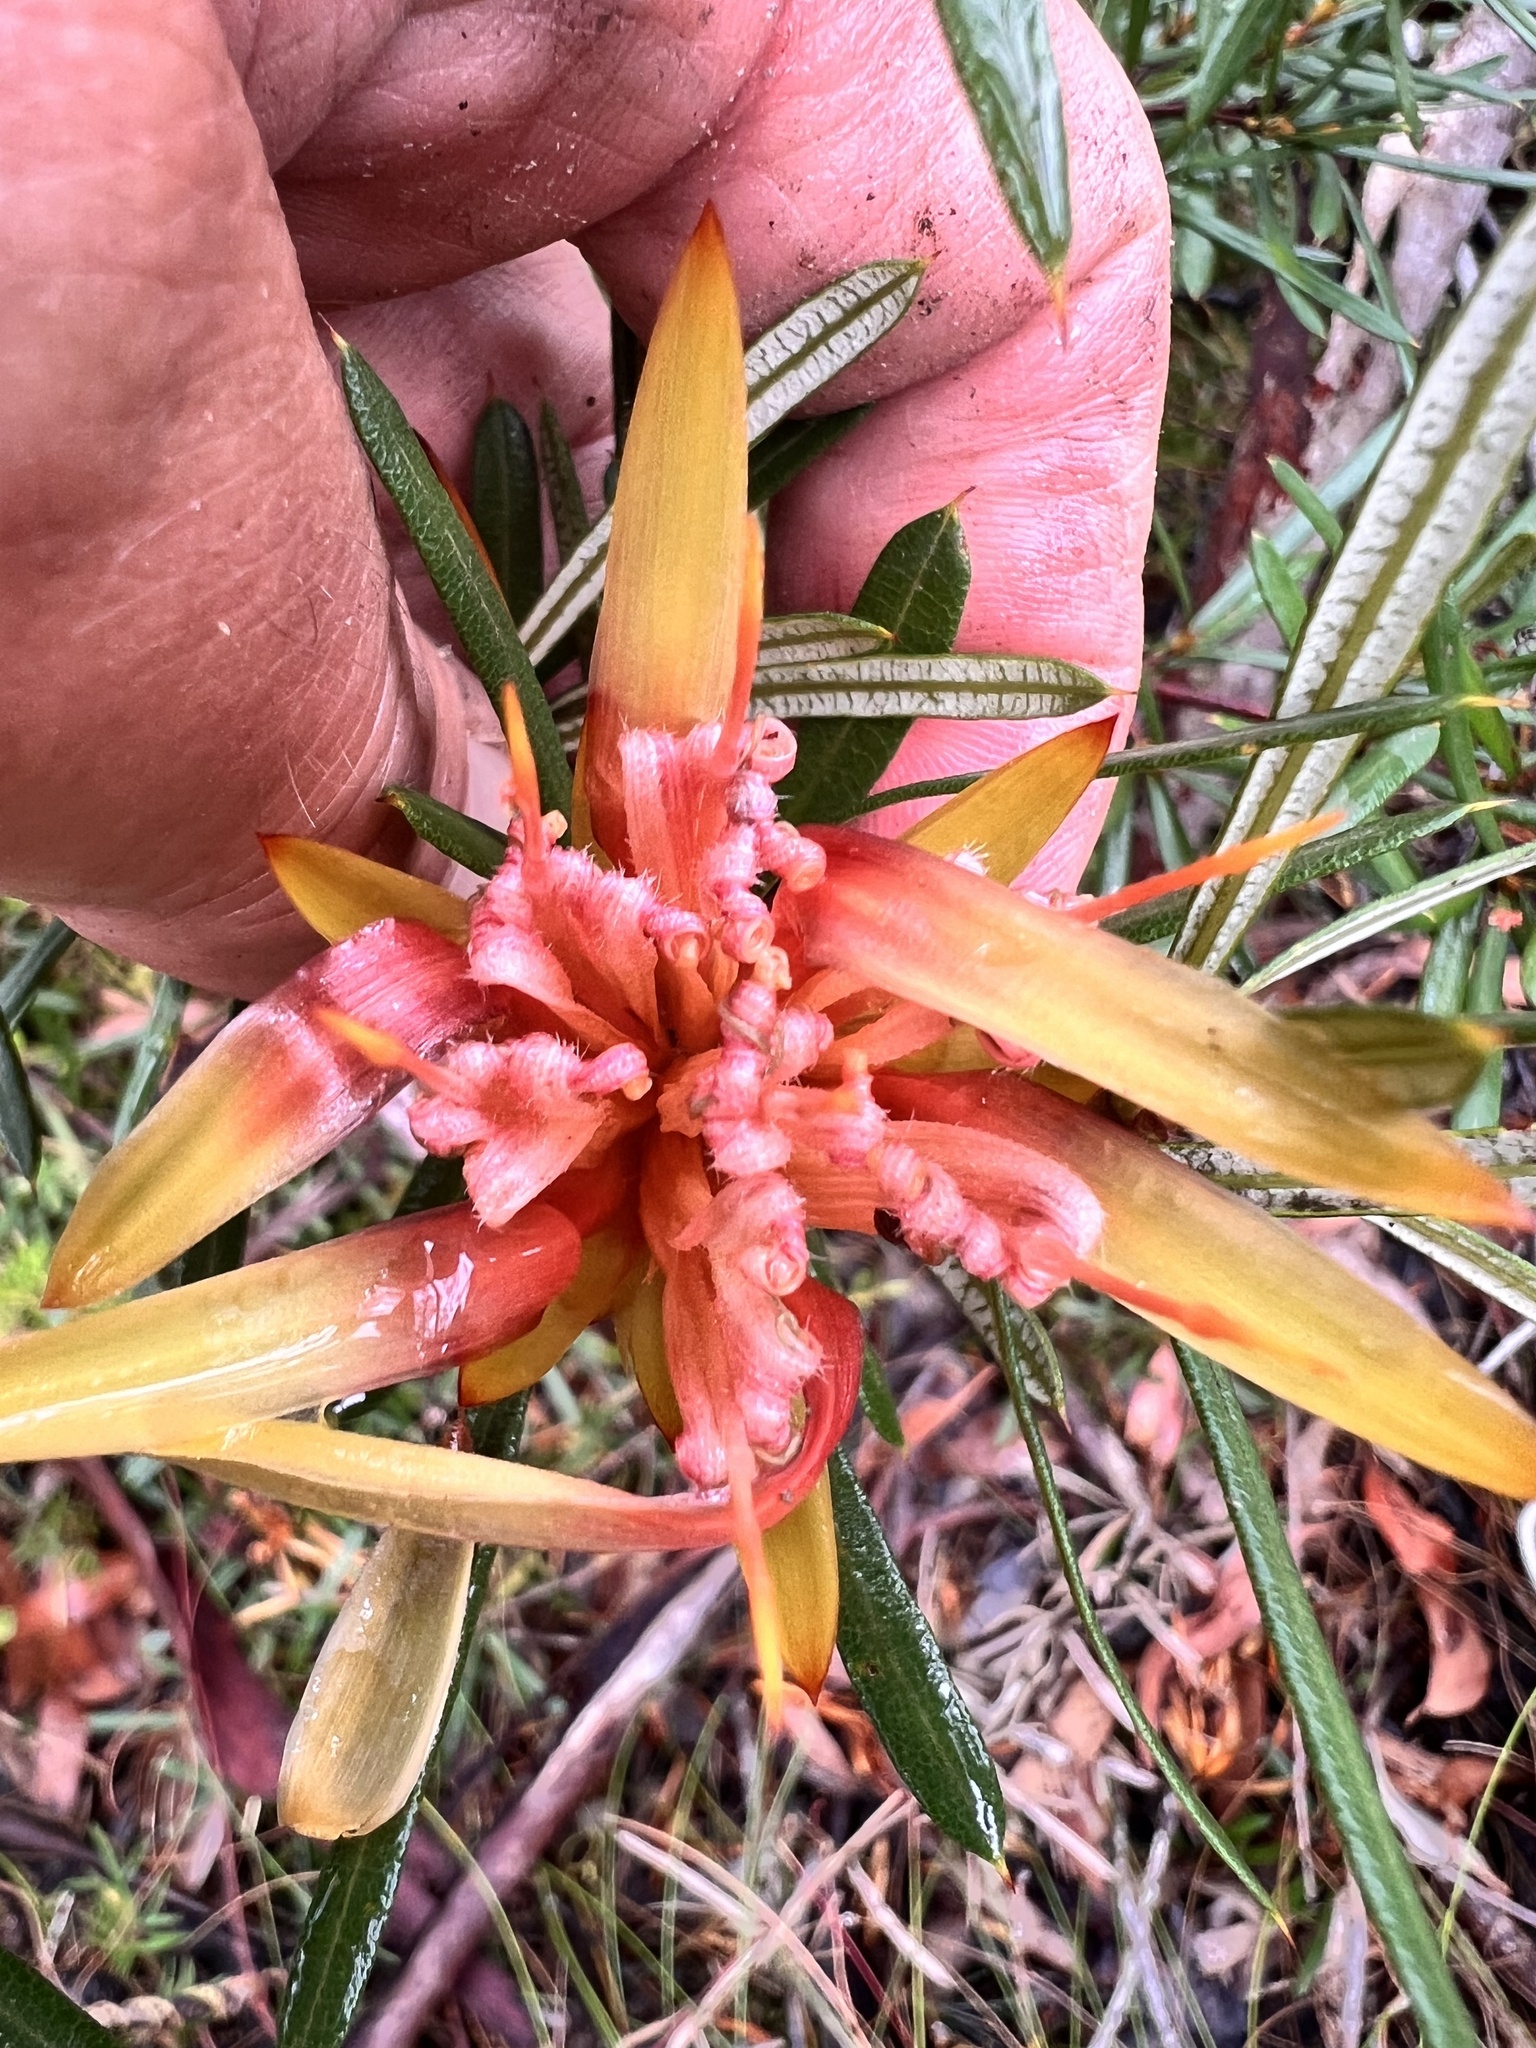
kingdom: Plantae
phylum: Tracheophyta
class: Magnoliopsida
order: Proteales
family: Proteaceae
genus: Lambertia
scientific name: Lambertia formosa
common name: Mountain-devil
